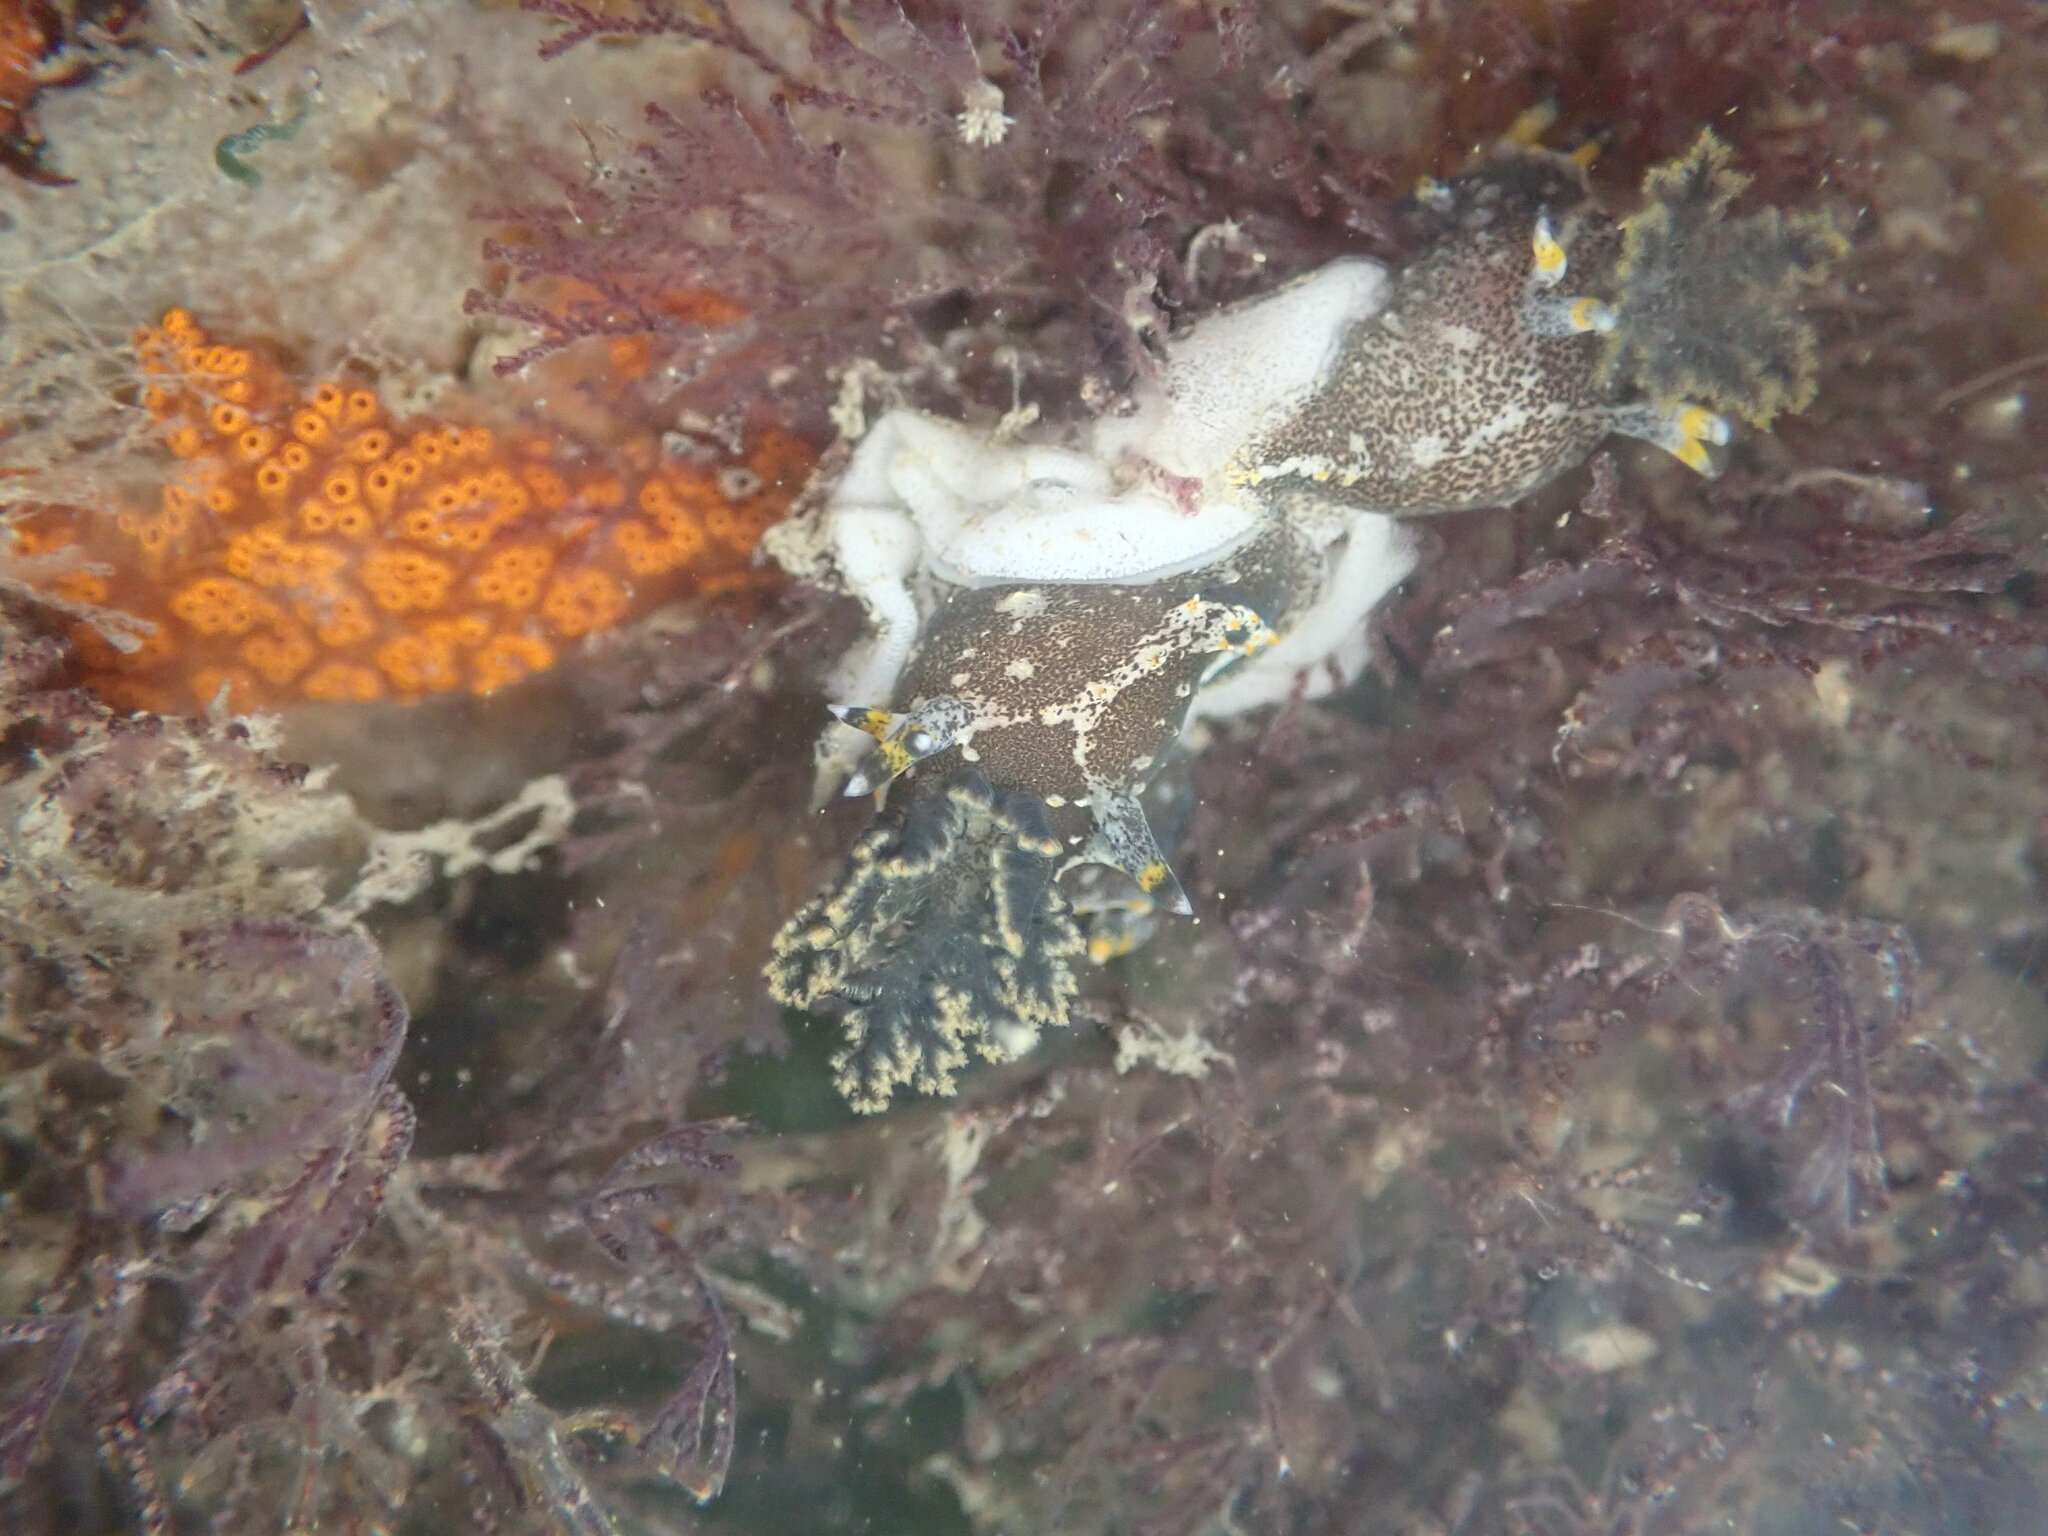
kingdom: Animalia
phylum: Mollusca
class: Gastropoda
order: Nudibranchia
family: Polyceridae
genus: Polycera
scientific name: Polycera hedgpethi
